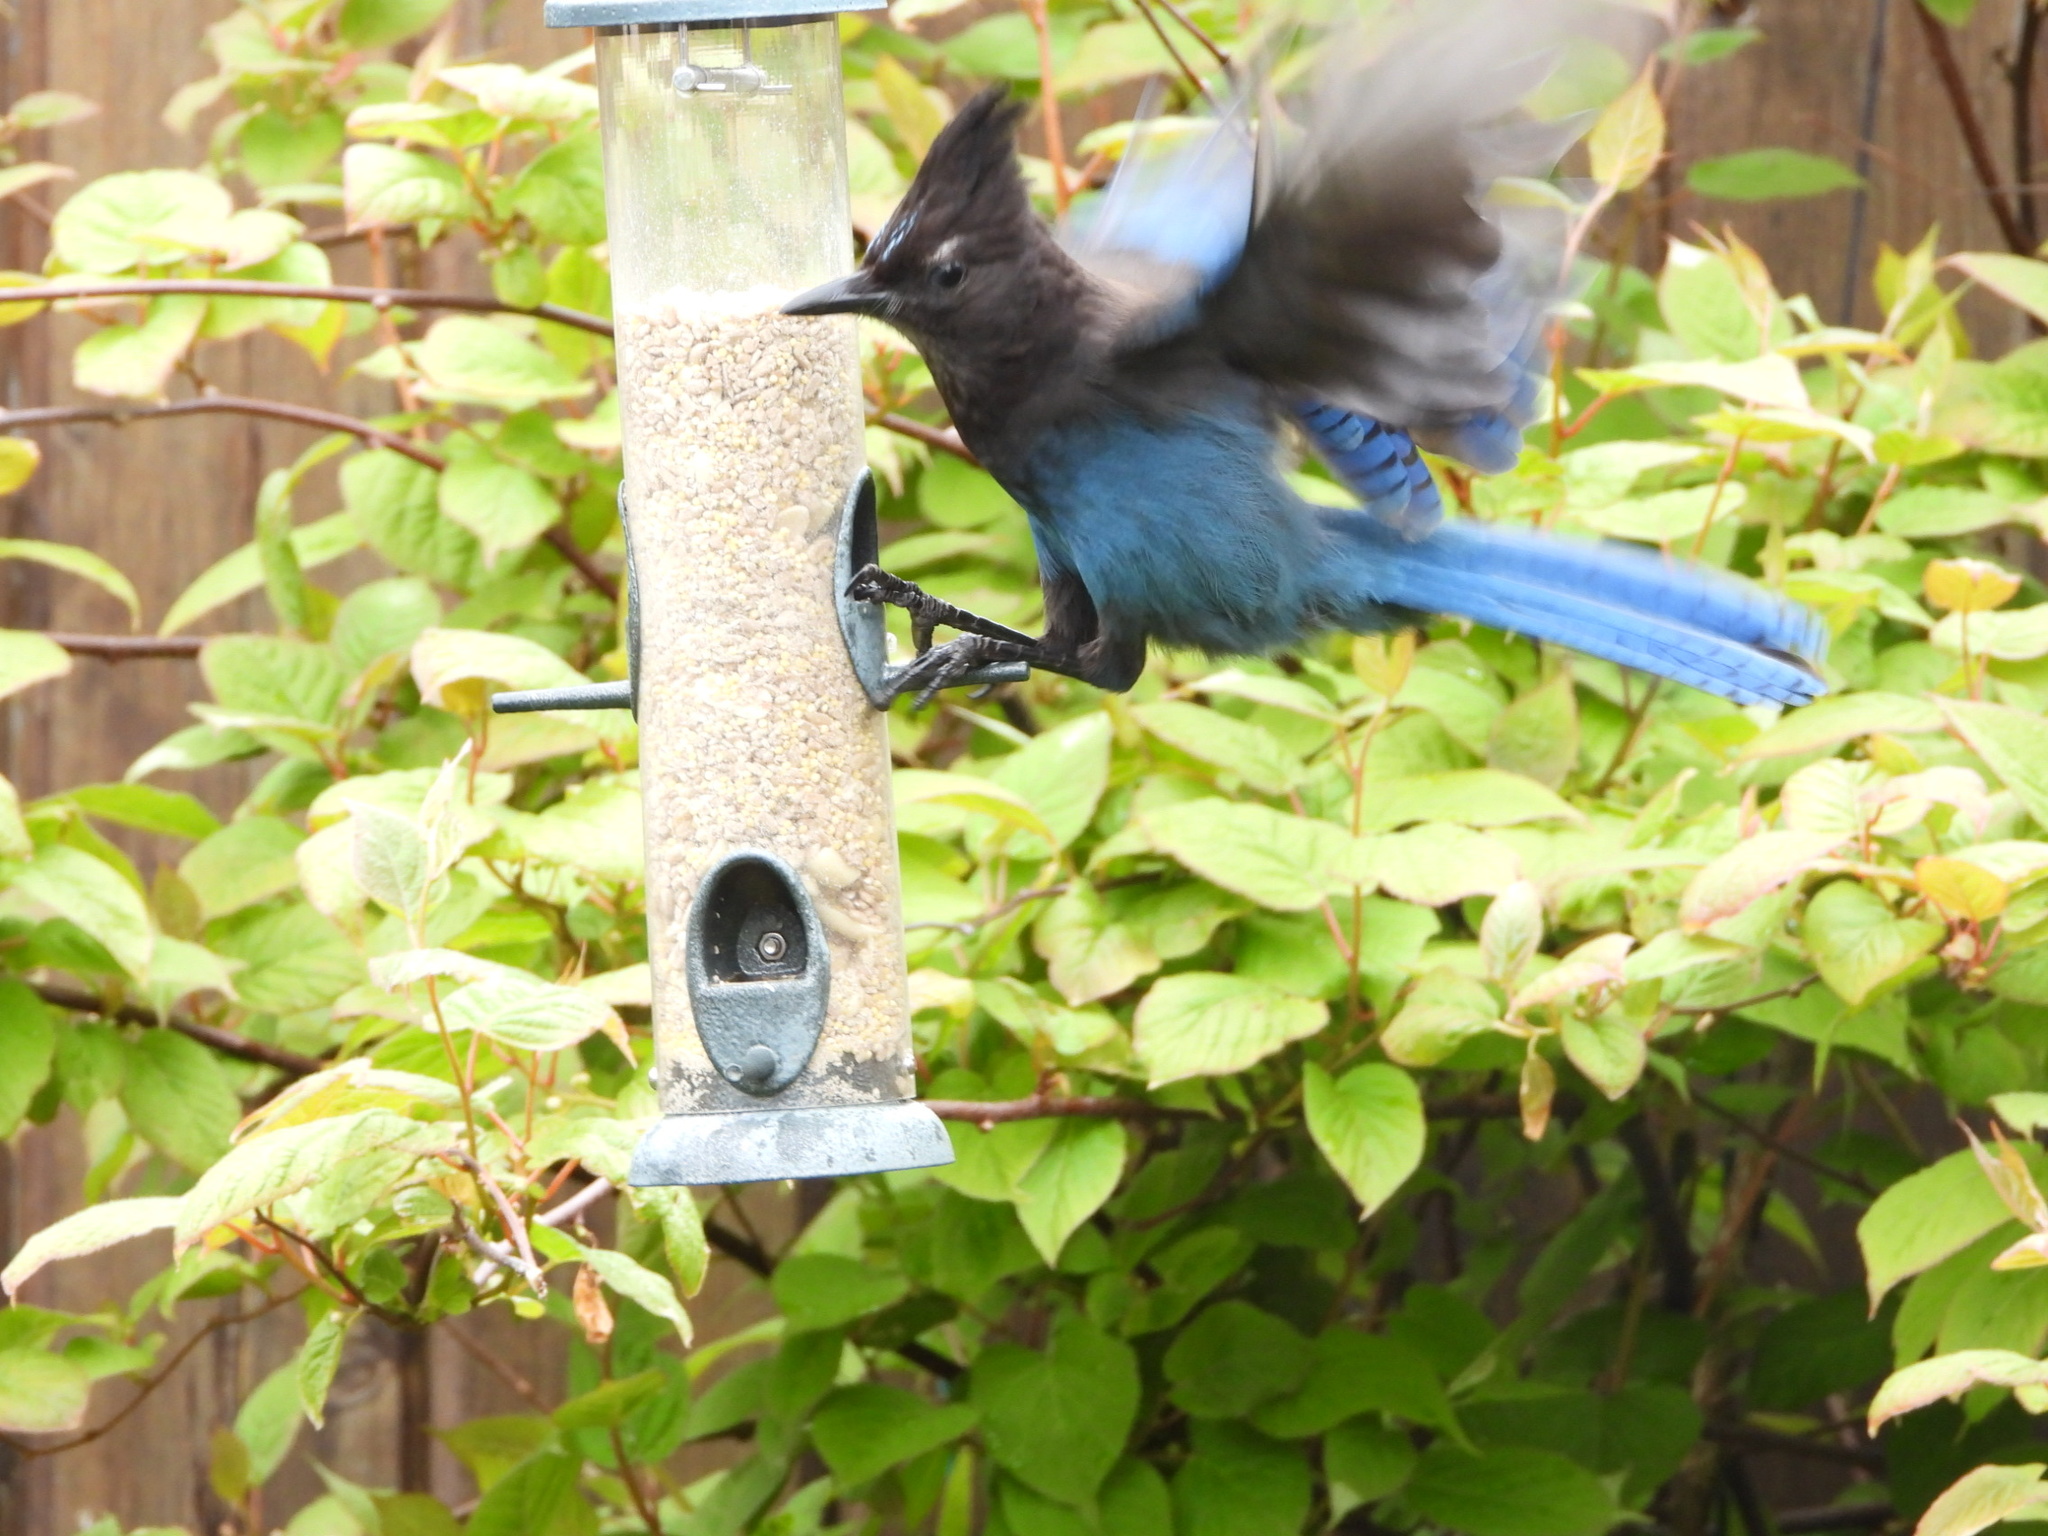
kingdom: Animalia
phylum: Chordata
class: Aves
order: Passeriformes
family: Corvidae
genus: Cyanocitta
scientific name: Cyanocitta stelleri
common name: Steller's jay
